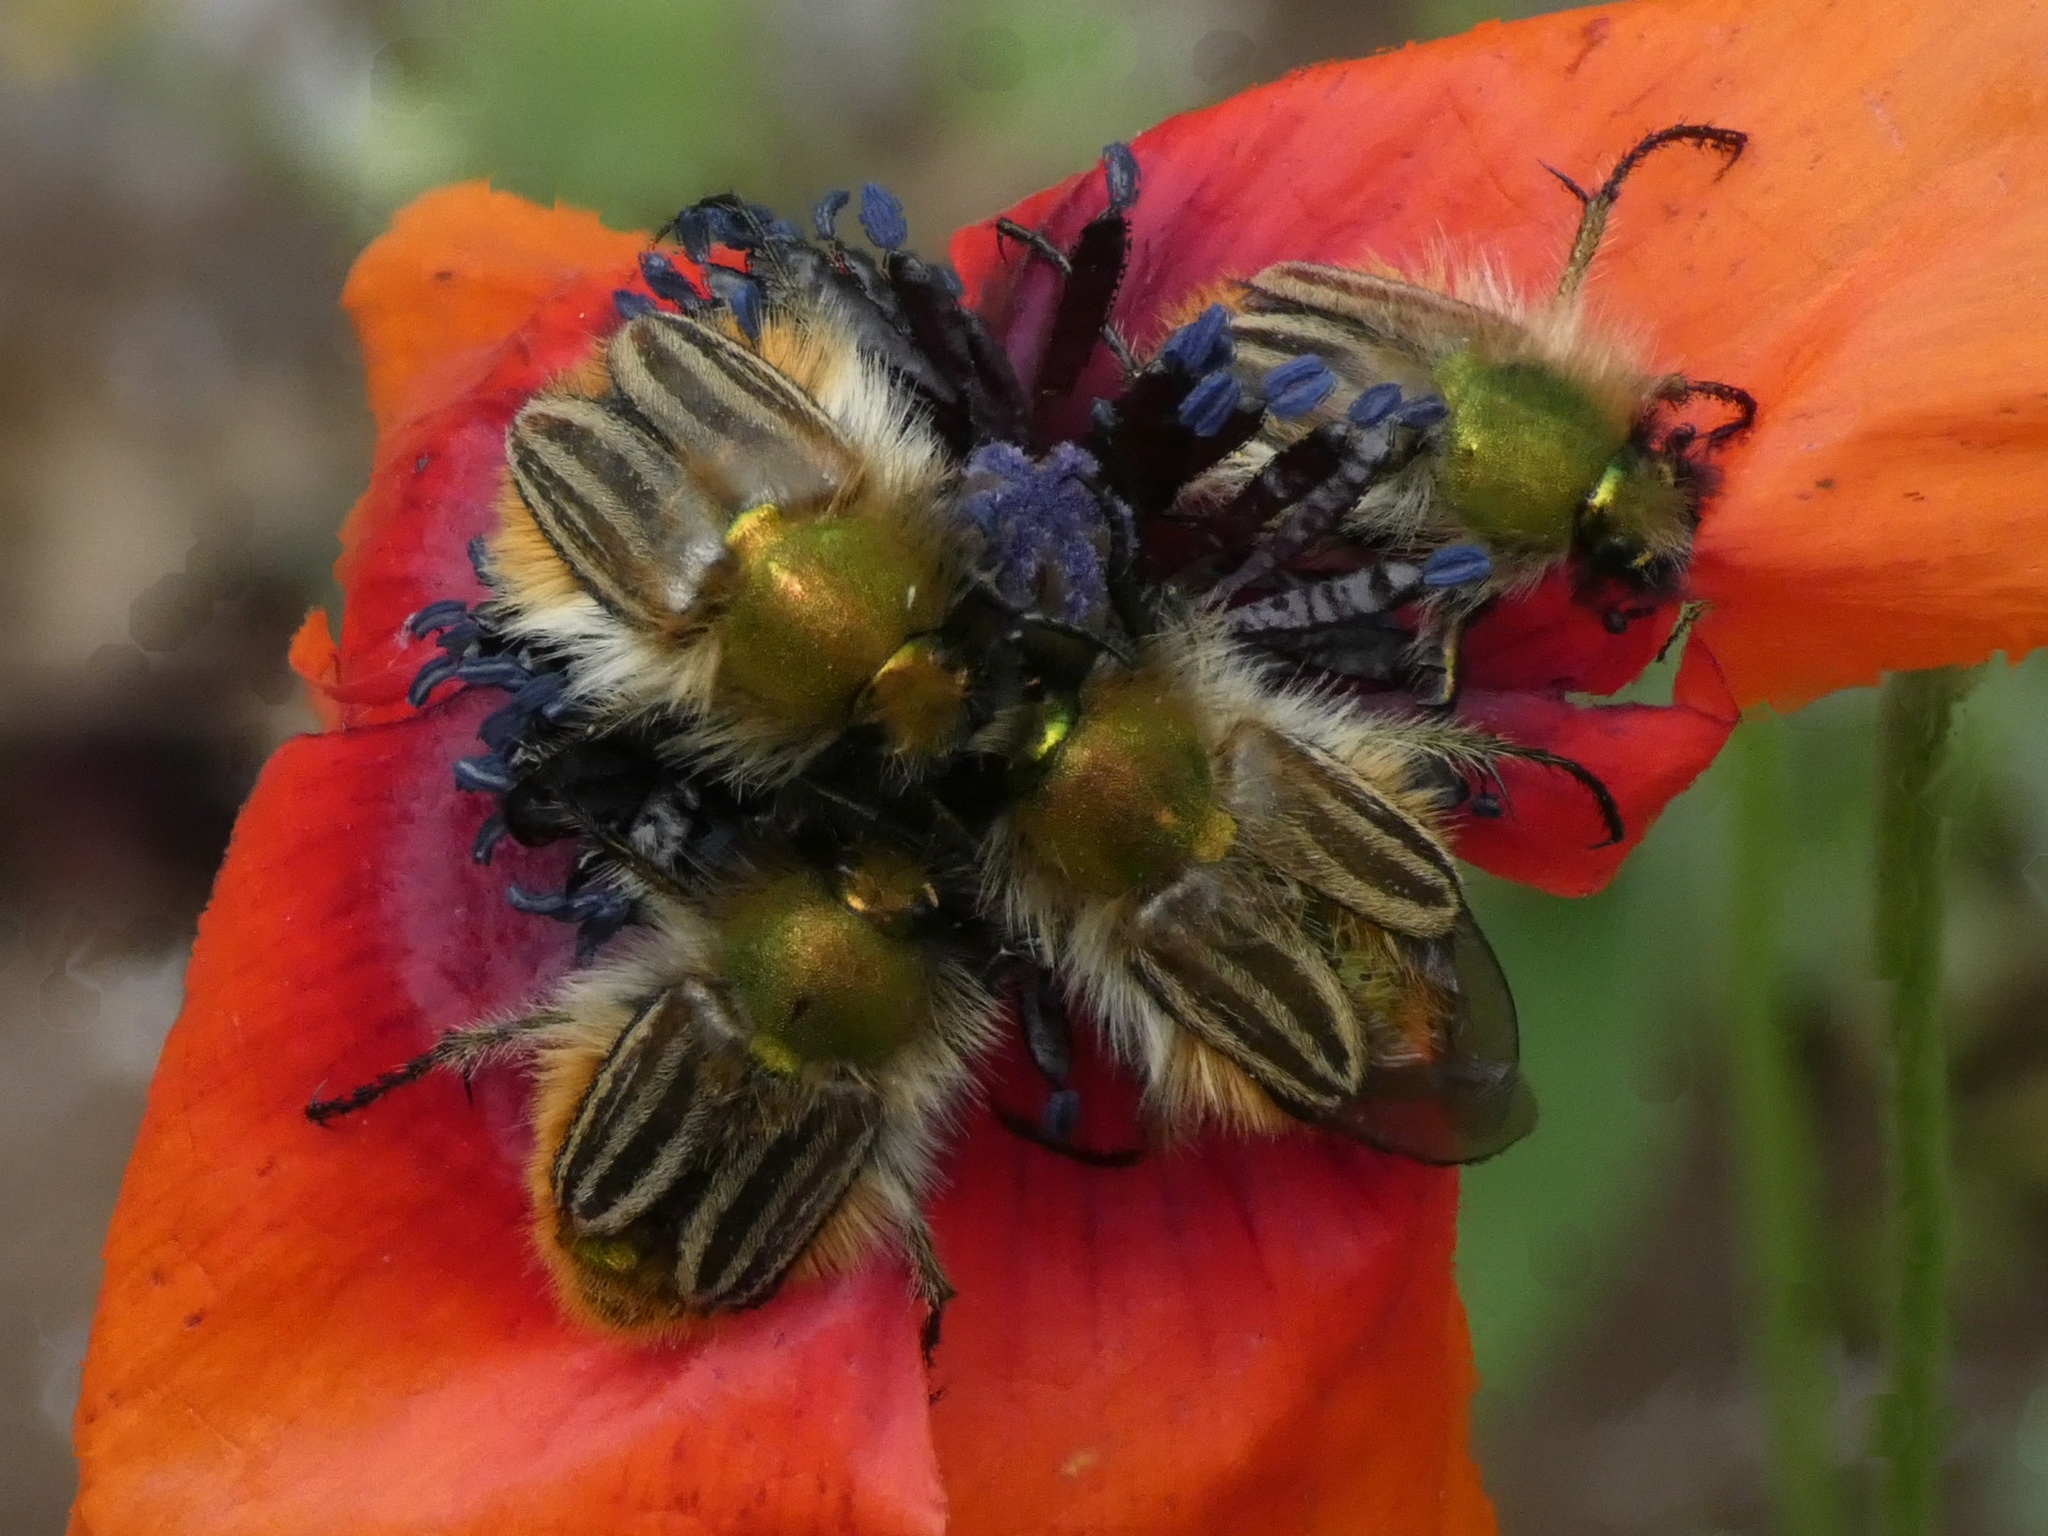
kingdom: Animalia
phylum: Arthropoda
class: Insecta
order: Coleoptera
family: Glaphyridae
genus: Eulasia
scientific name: Eulasia pareyssei
